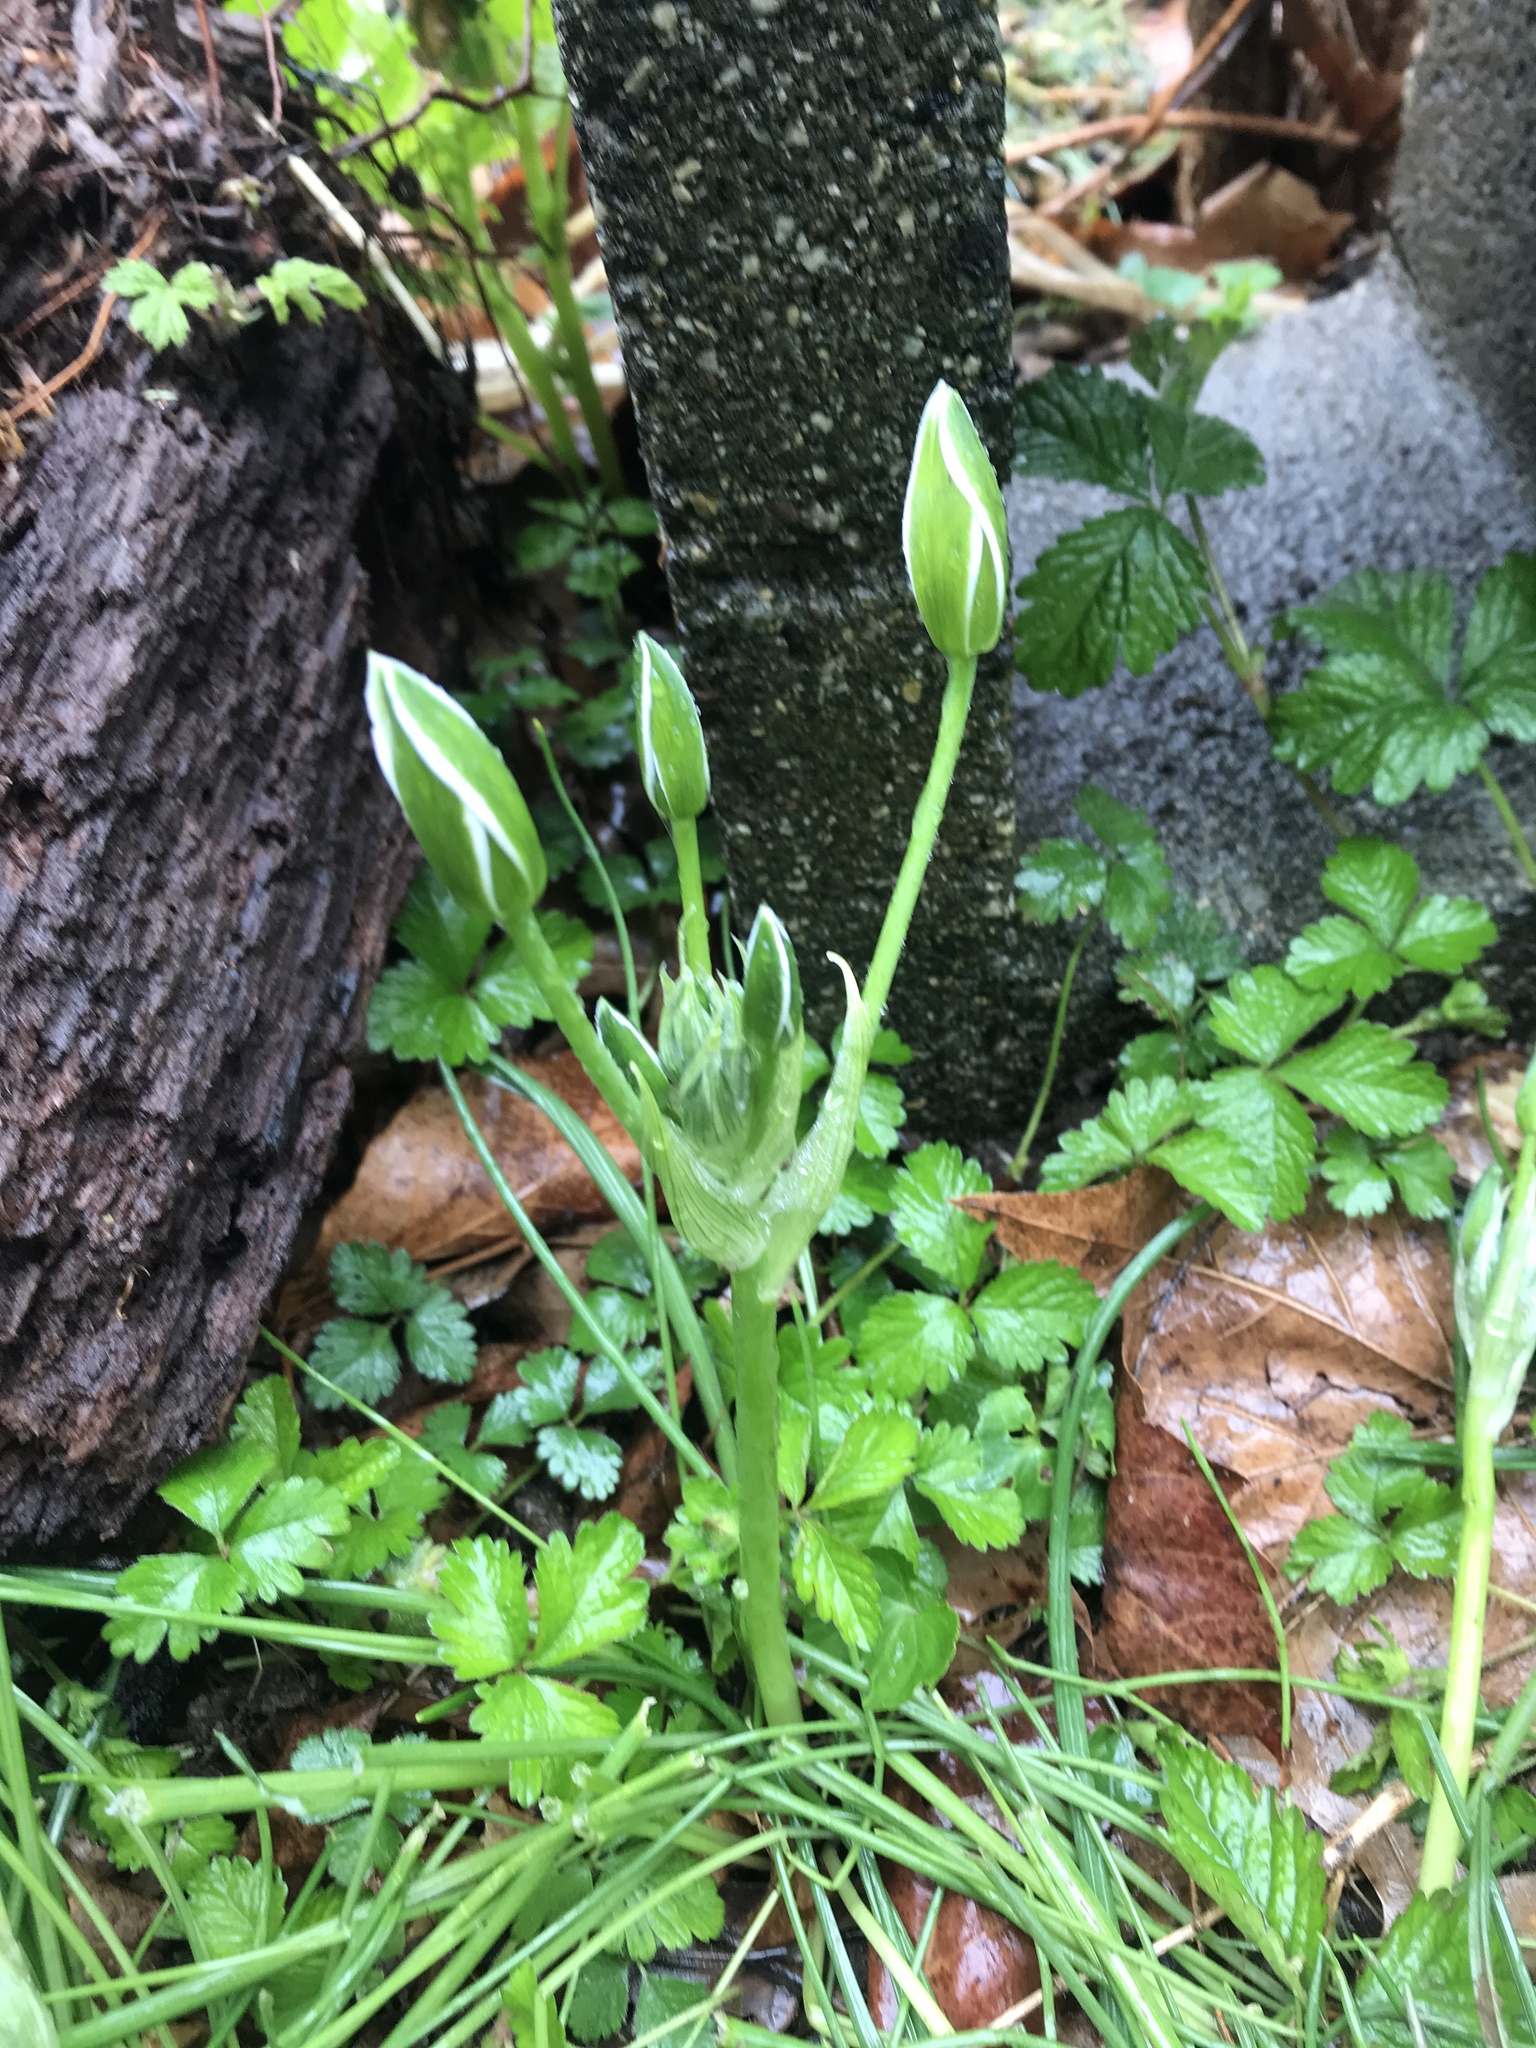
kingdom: Plantae
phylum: Tracheophyta
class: Liliopsida
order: Asparagales
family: Asparagaceae
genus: Ornithogalum
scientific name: Ornithogalum umbellatum
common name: Garden star-of-bethlehem
